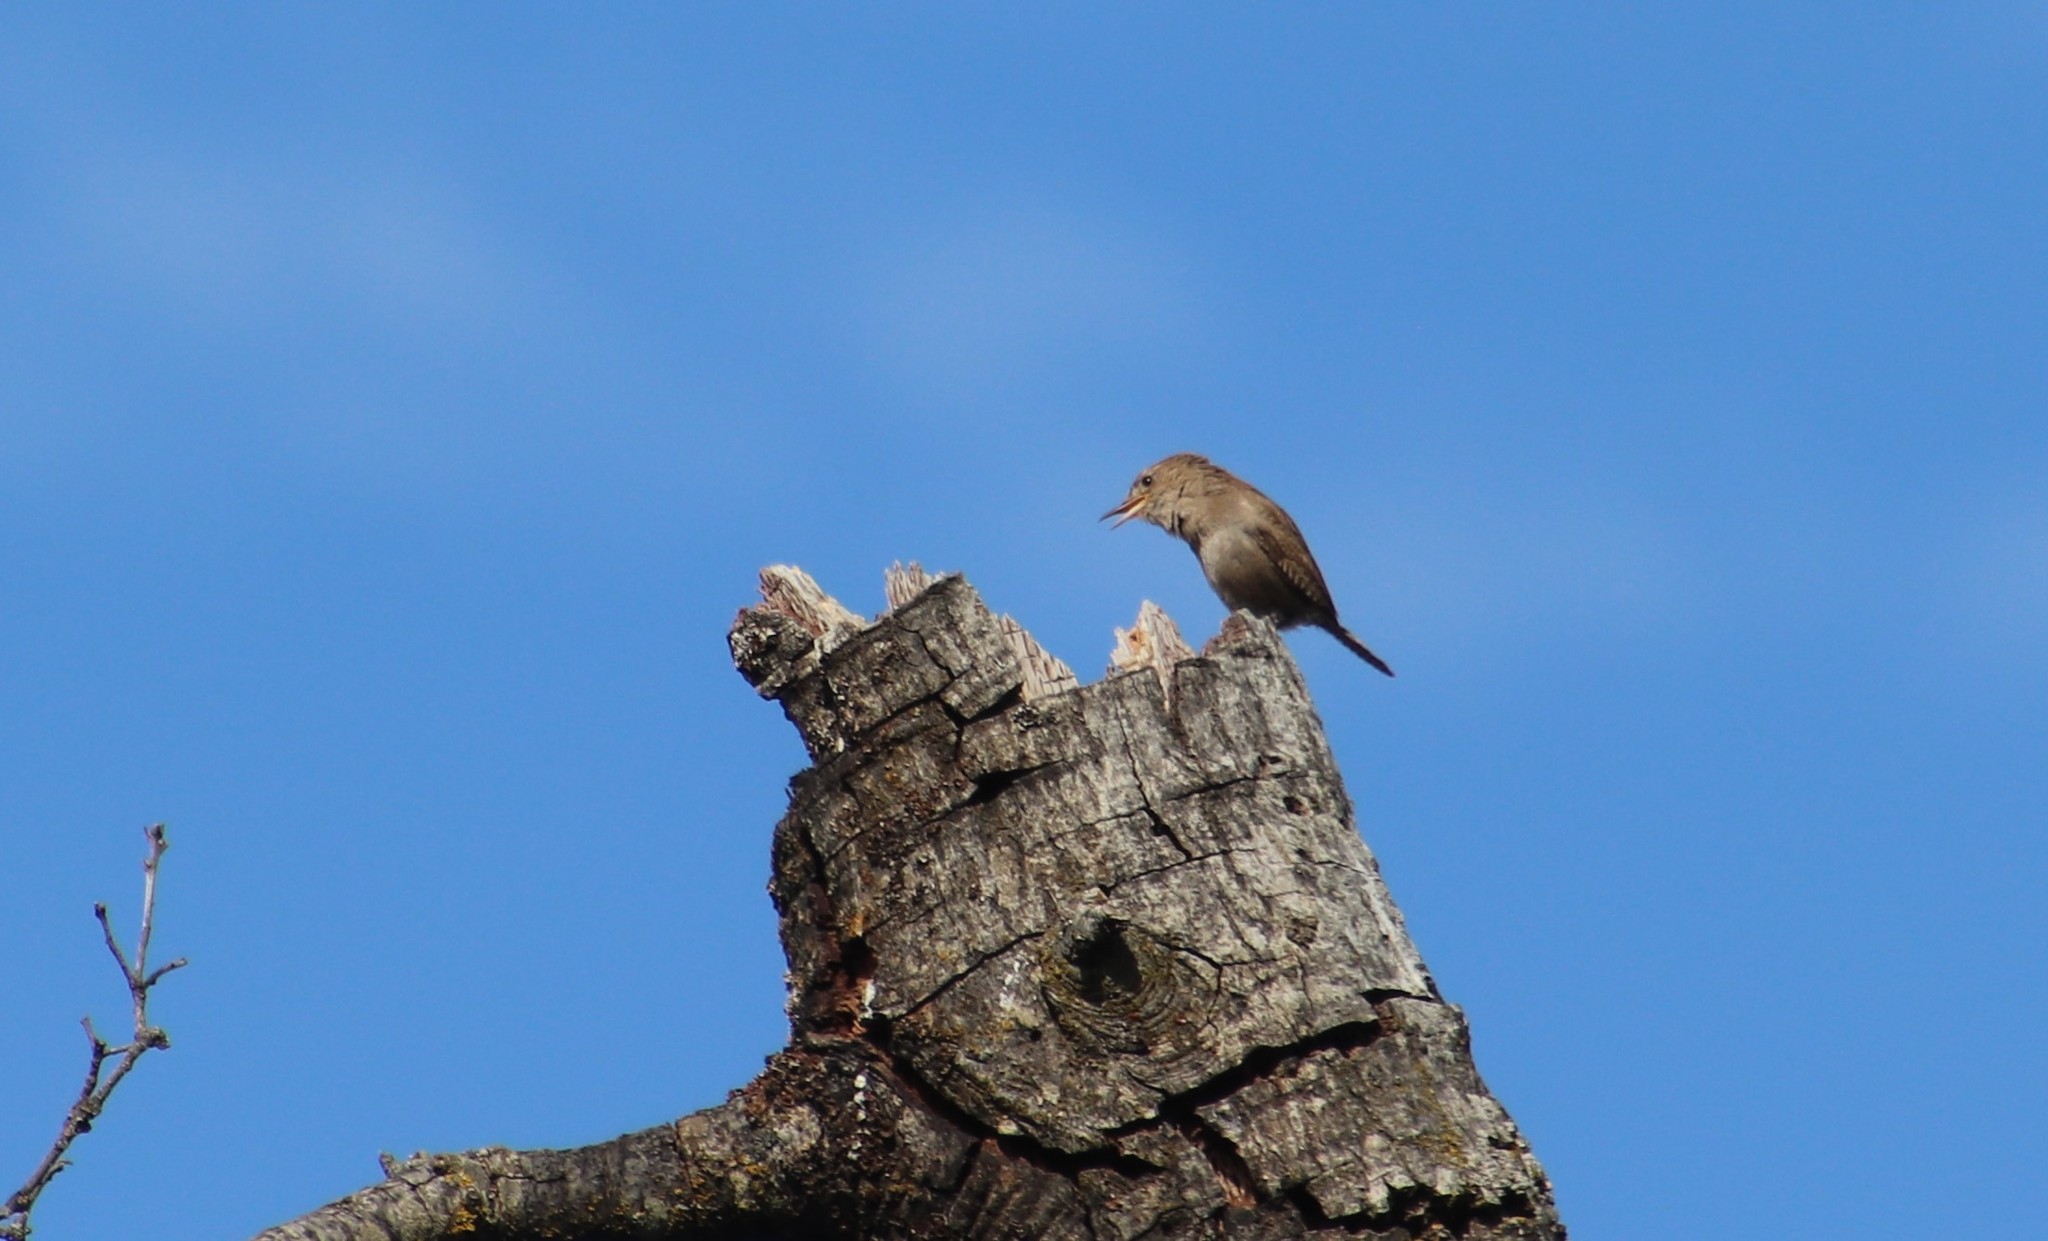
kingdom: Animalia
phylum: Chordata
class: Aves
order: Passeriformes
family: Troglodytidae
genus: Troglodytes
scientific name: Troglodytes aedon
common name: House wren
